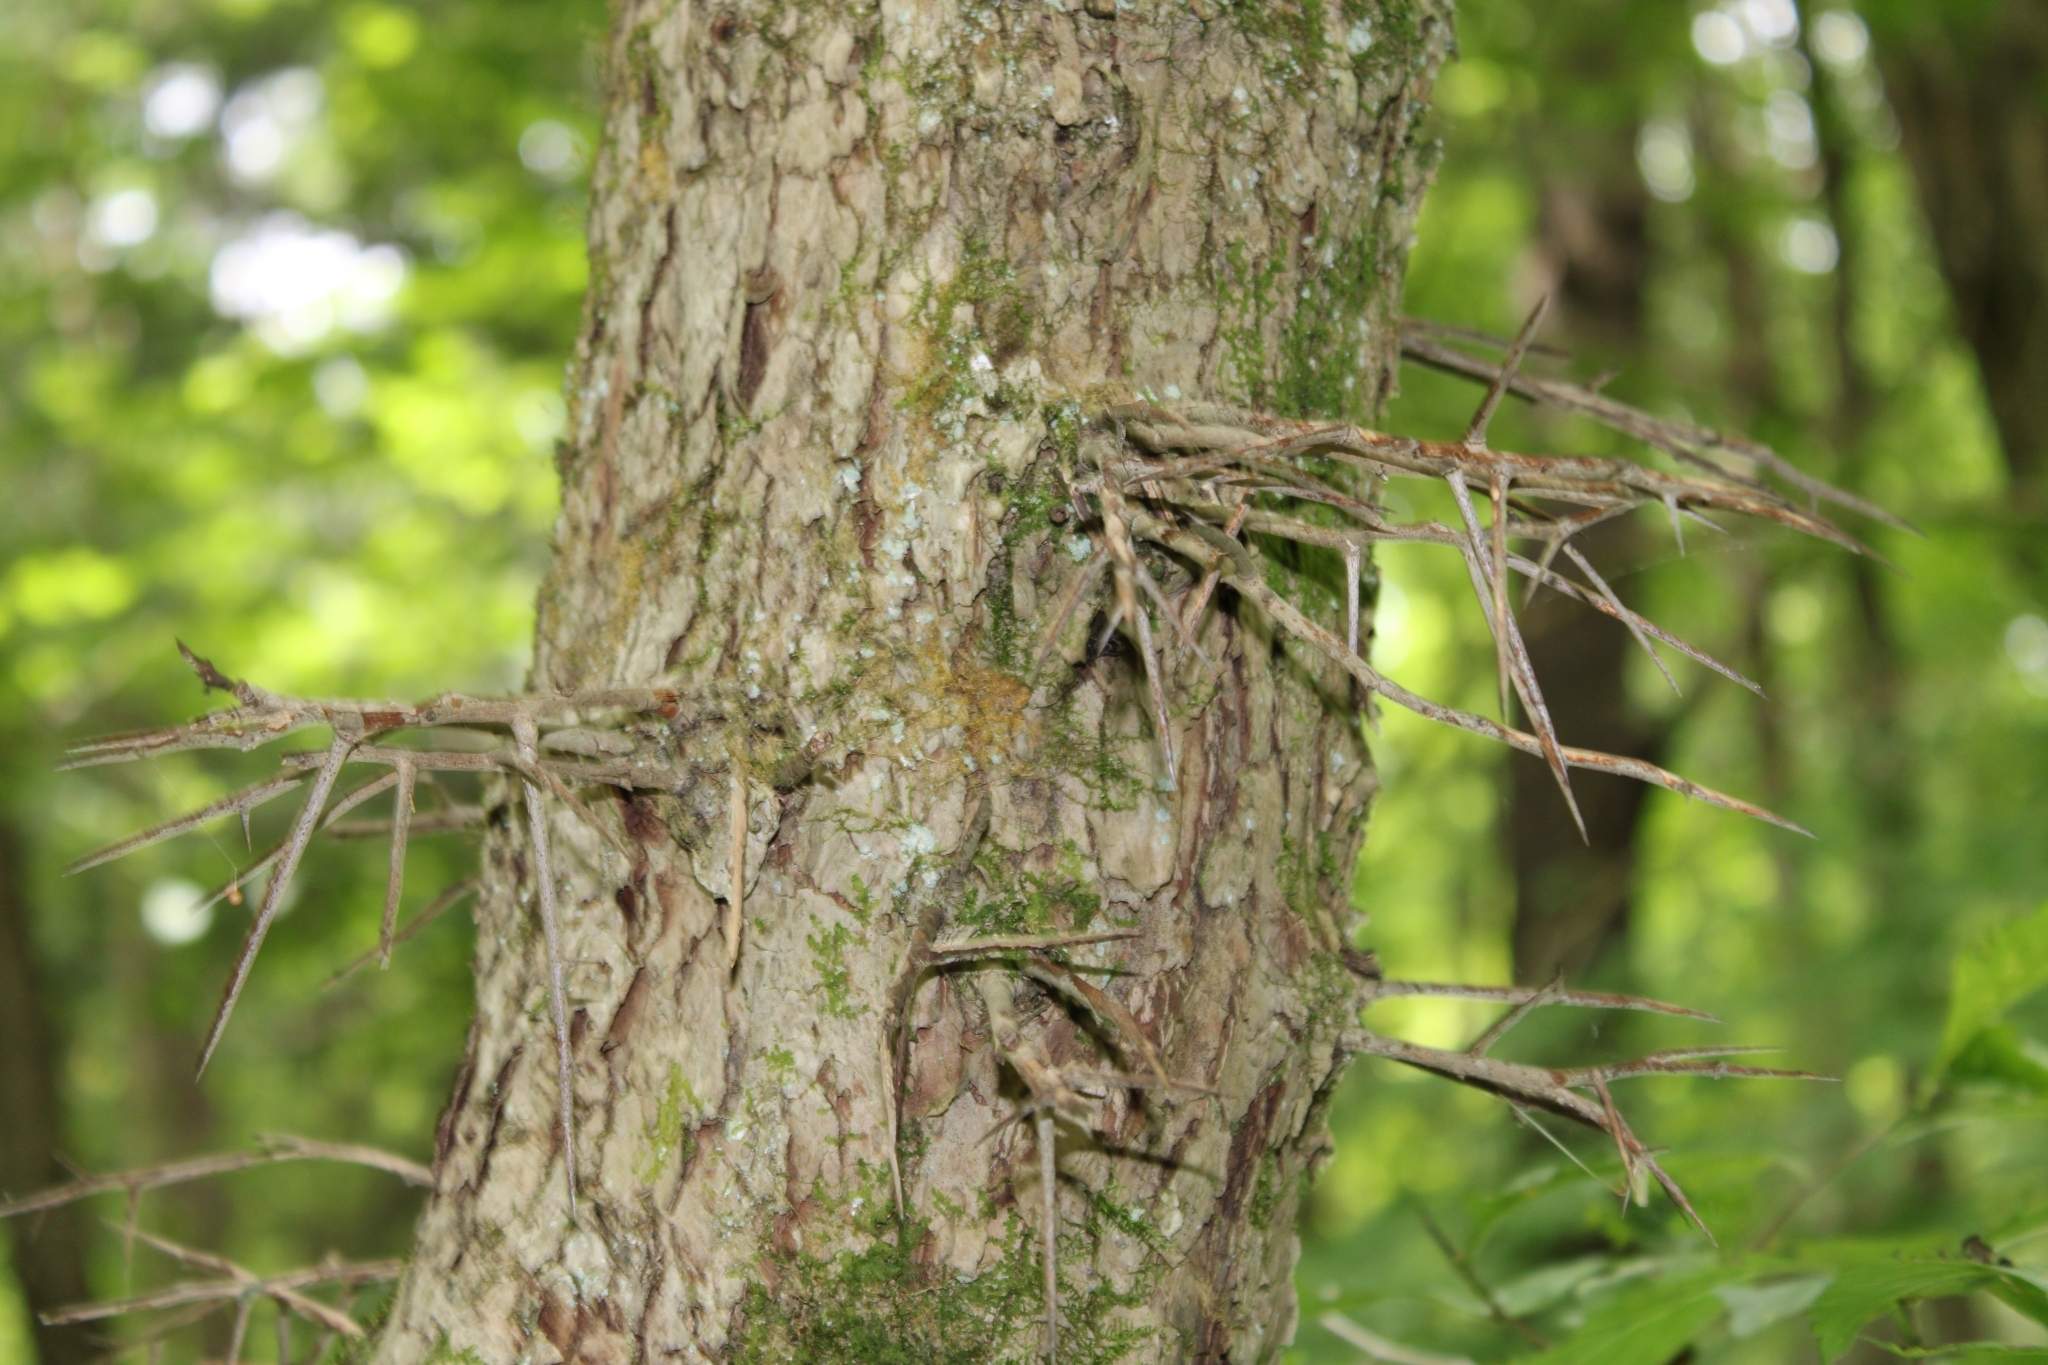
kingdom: Plantae
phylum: Tracheophyta
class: Magnoliopsida
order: Rosales
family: Rosaceae
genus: Crataegus
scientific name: Crataegus punctata
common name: Dotted hawthorn
